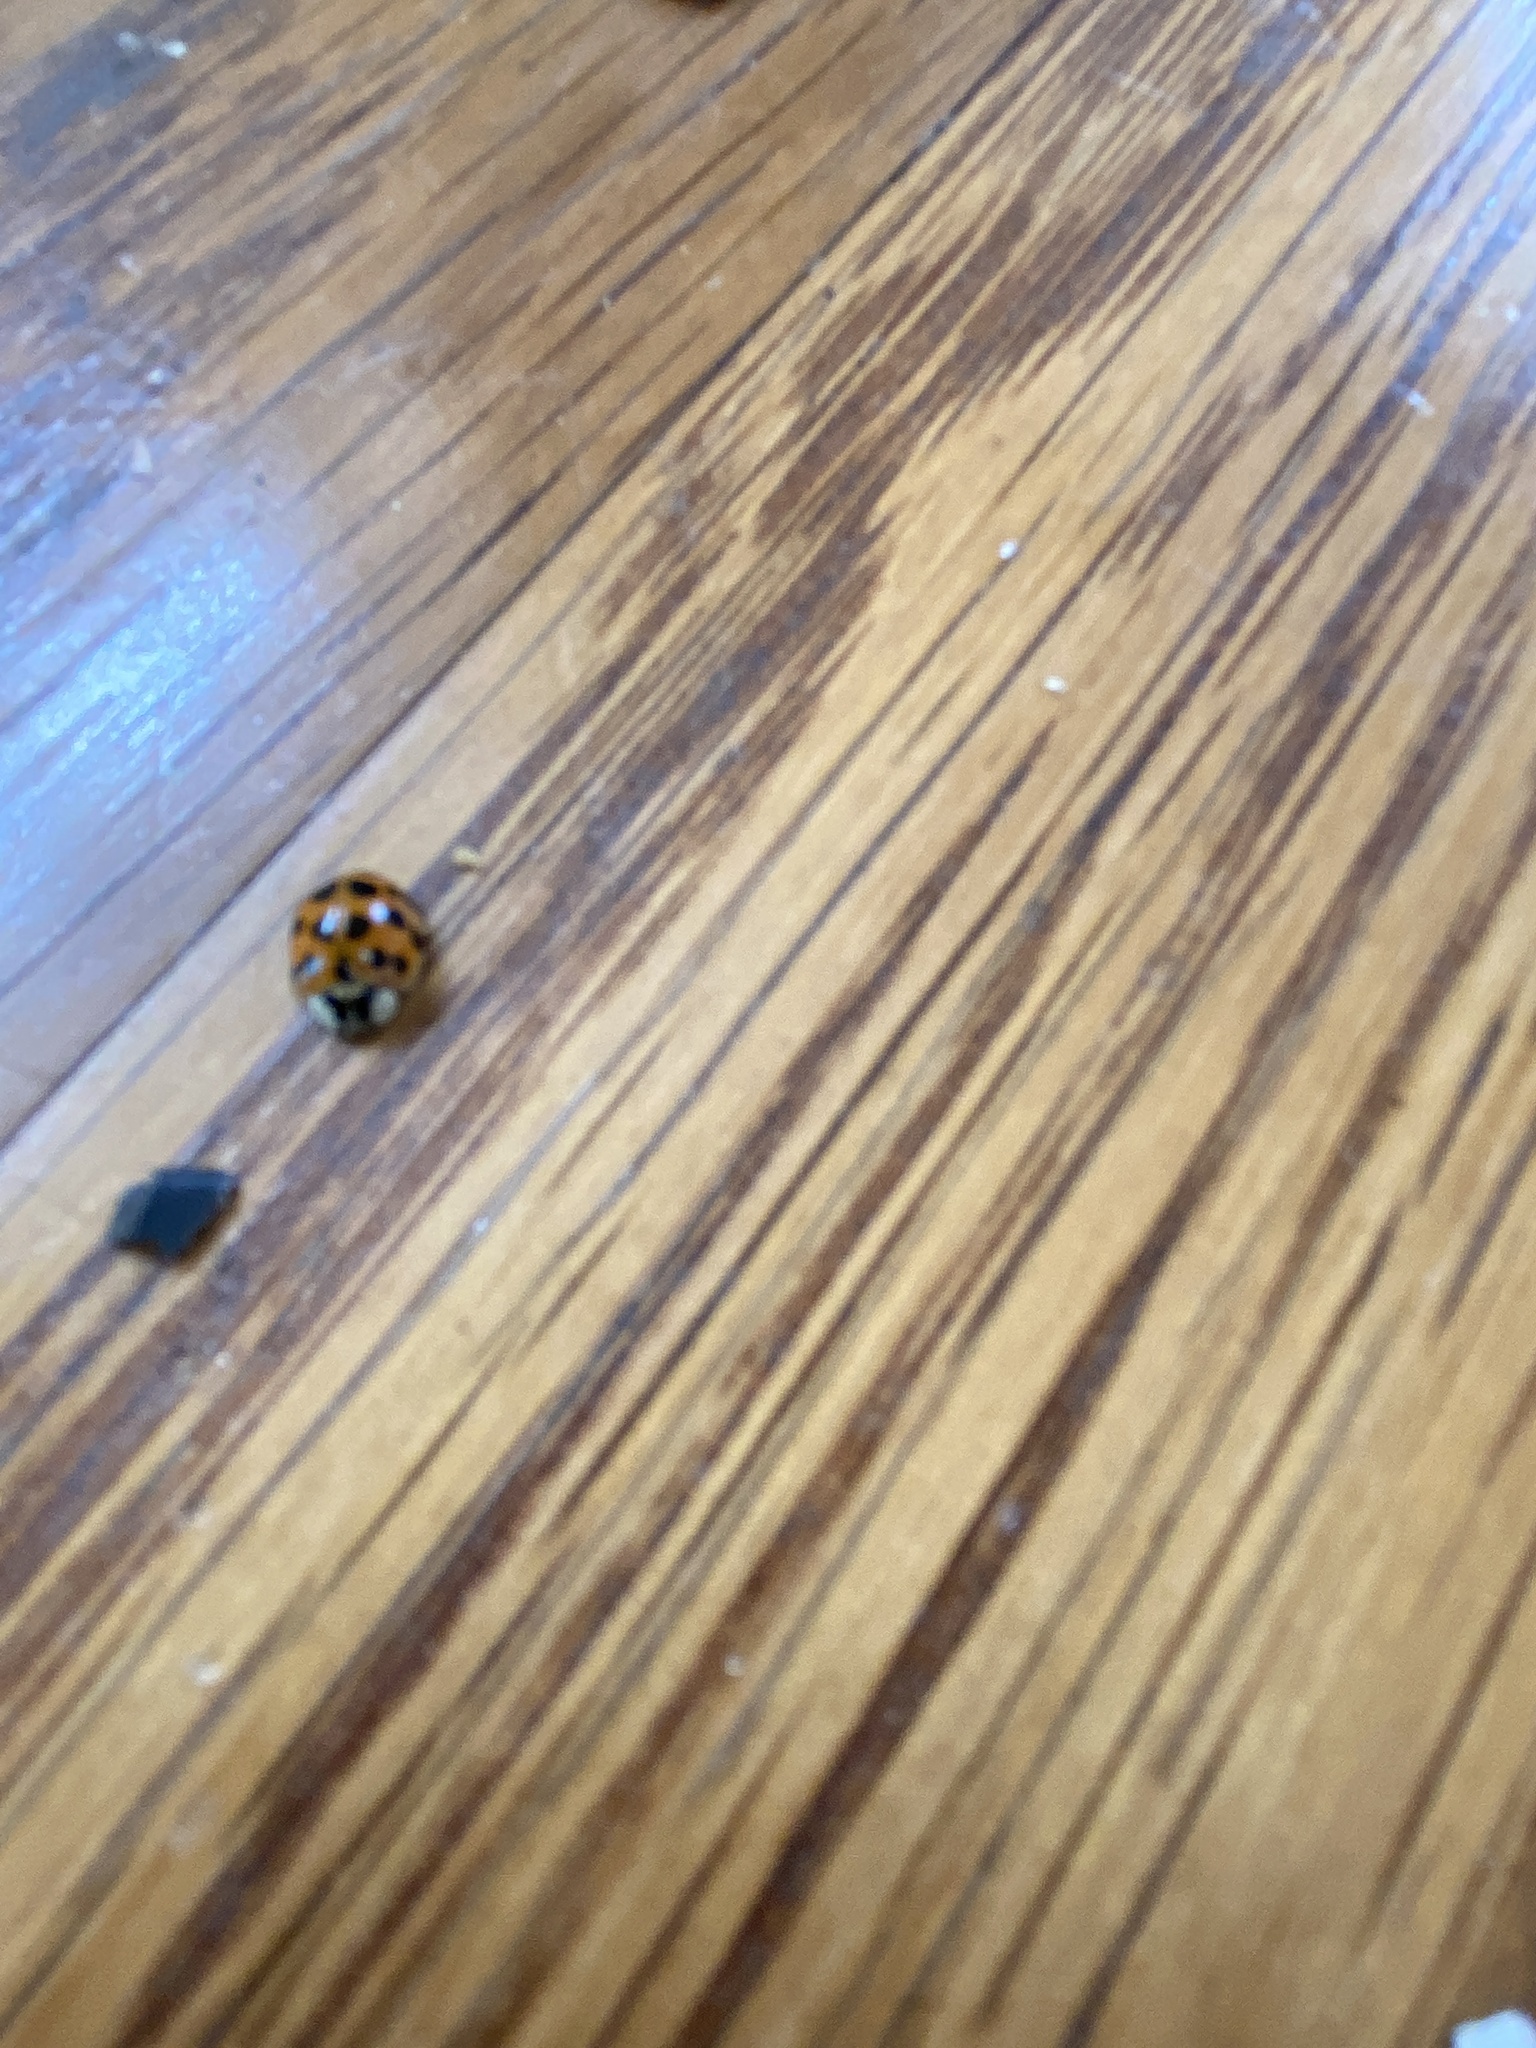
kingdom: Animalia
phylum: Arthropoda
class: Insecta
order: Coleoptera
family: Coccinellidae
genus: Harmonia
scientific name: Harmonia axyridis
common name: Harlequin ladybird
